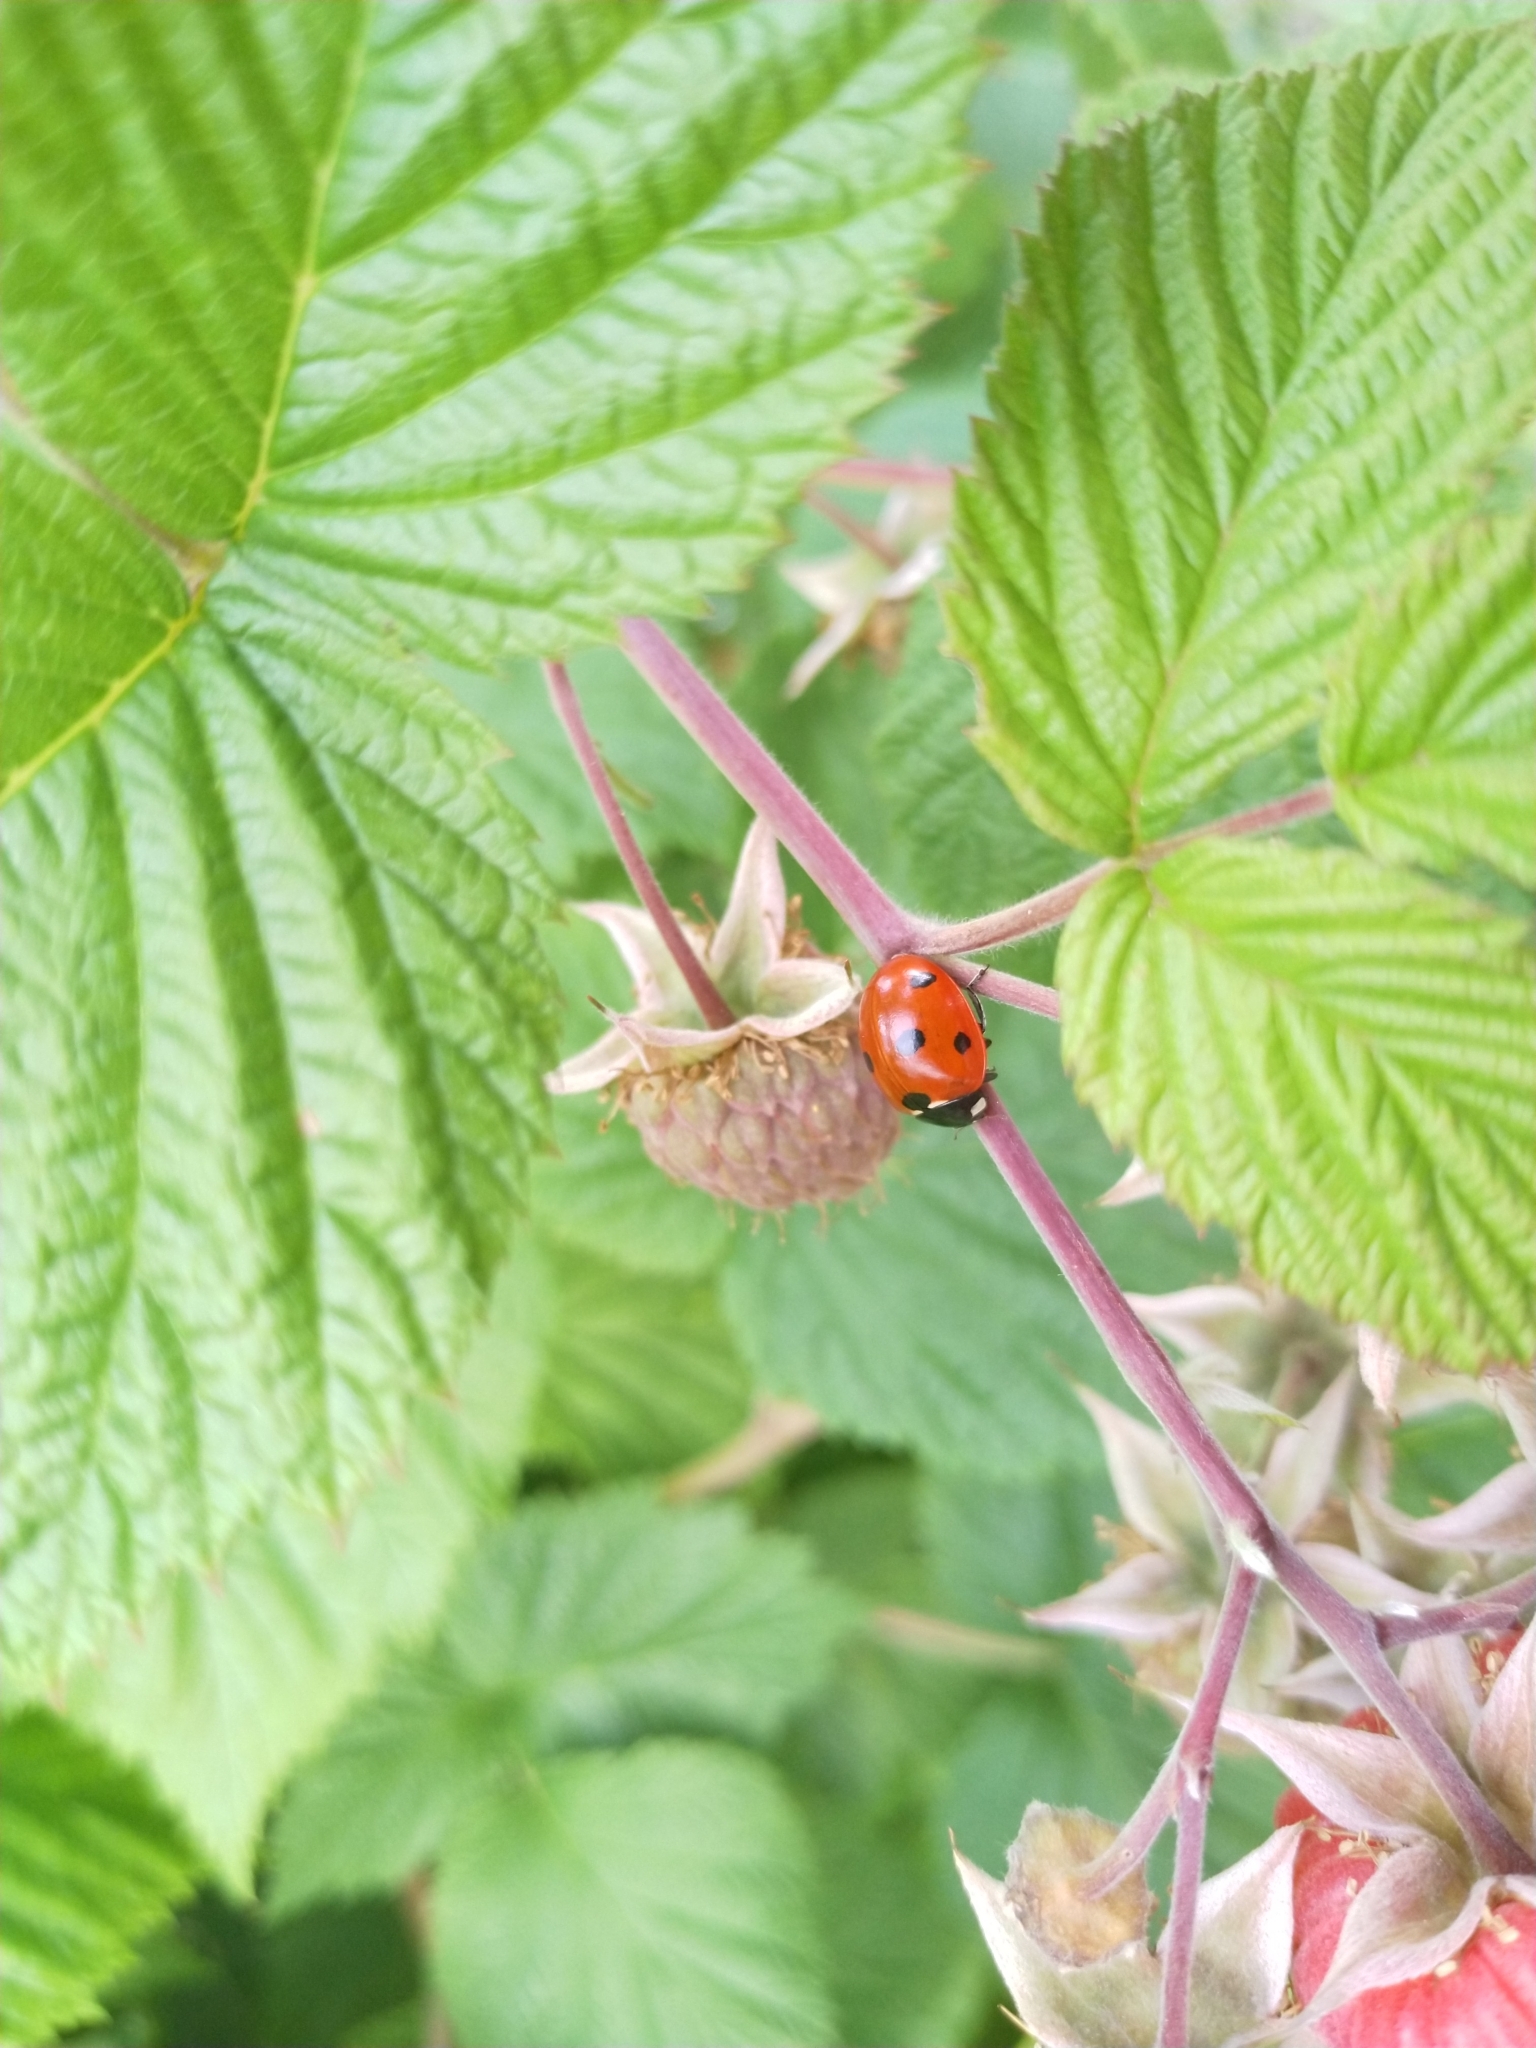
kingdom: Animalia
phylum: Arthropoda
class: Insecta
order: Coleoptera
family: Coccinellidae
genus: Coccinella
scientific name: Coccinella septempunctata
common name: Sevenspotted lady beetle
